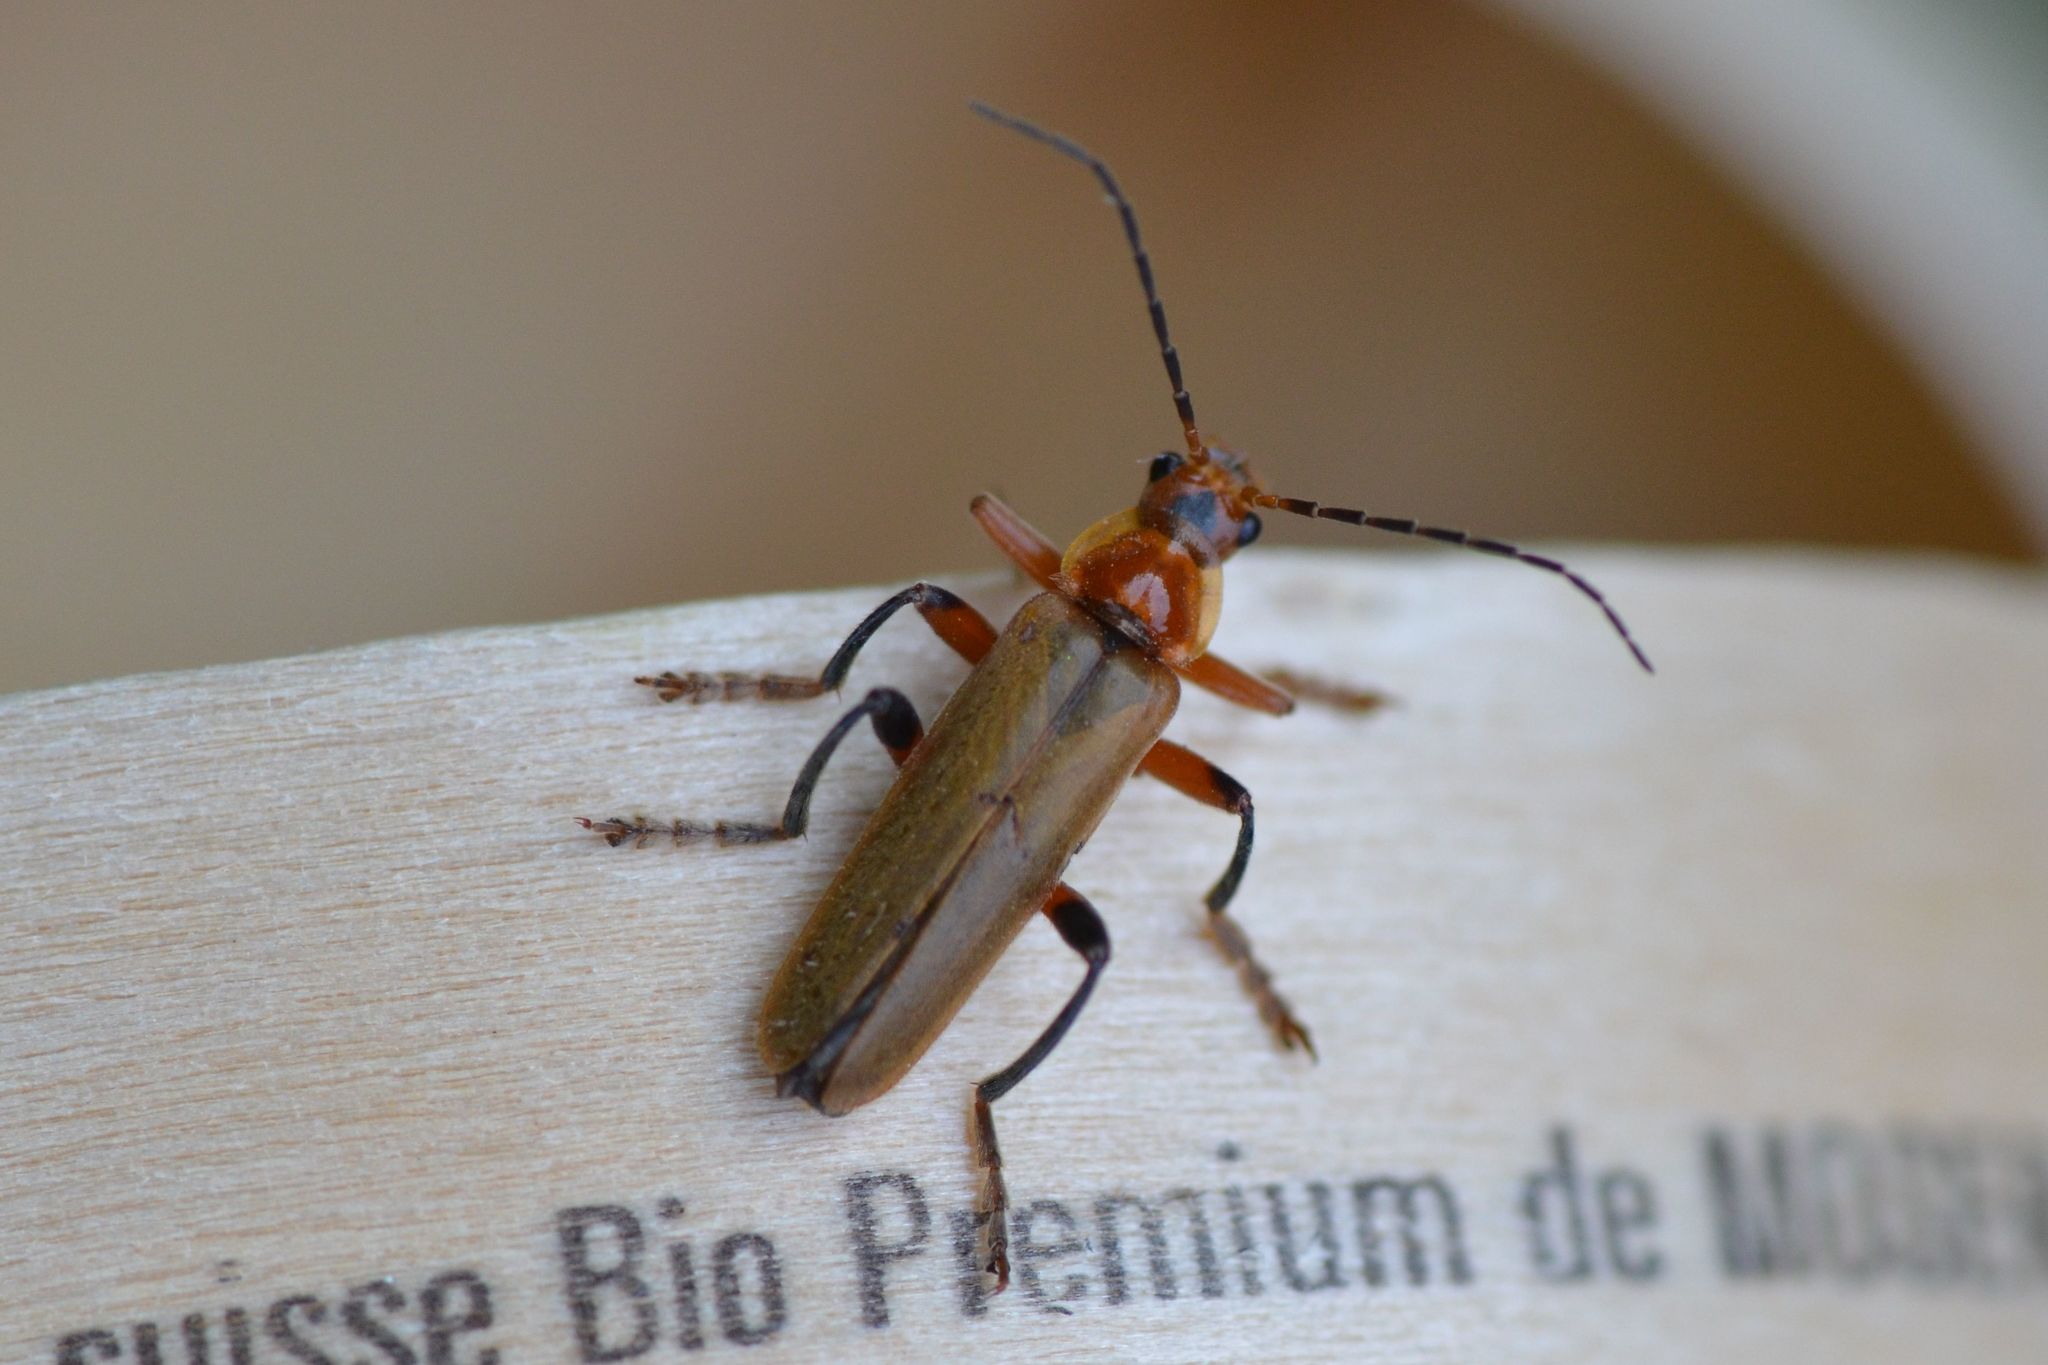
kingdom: Animalia
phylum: Arthropoda
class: Insecta
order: Coleoptera
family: Cantharidae
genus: Cantharis
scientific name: Cantharis livida
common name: Livid soldier beetle
